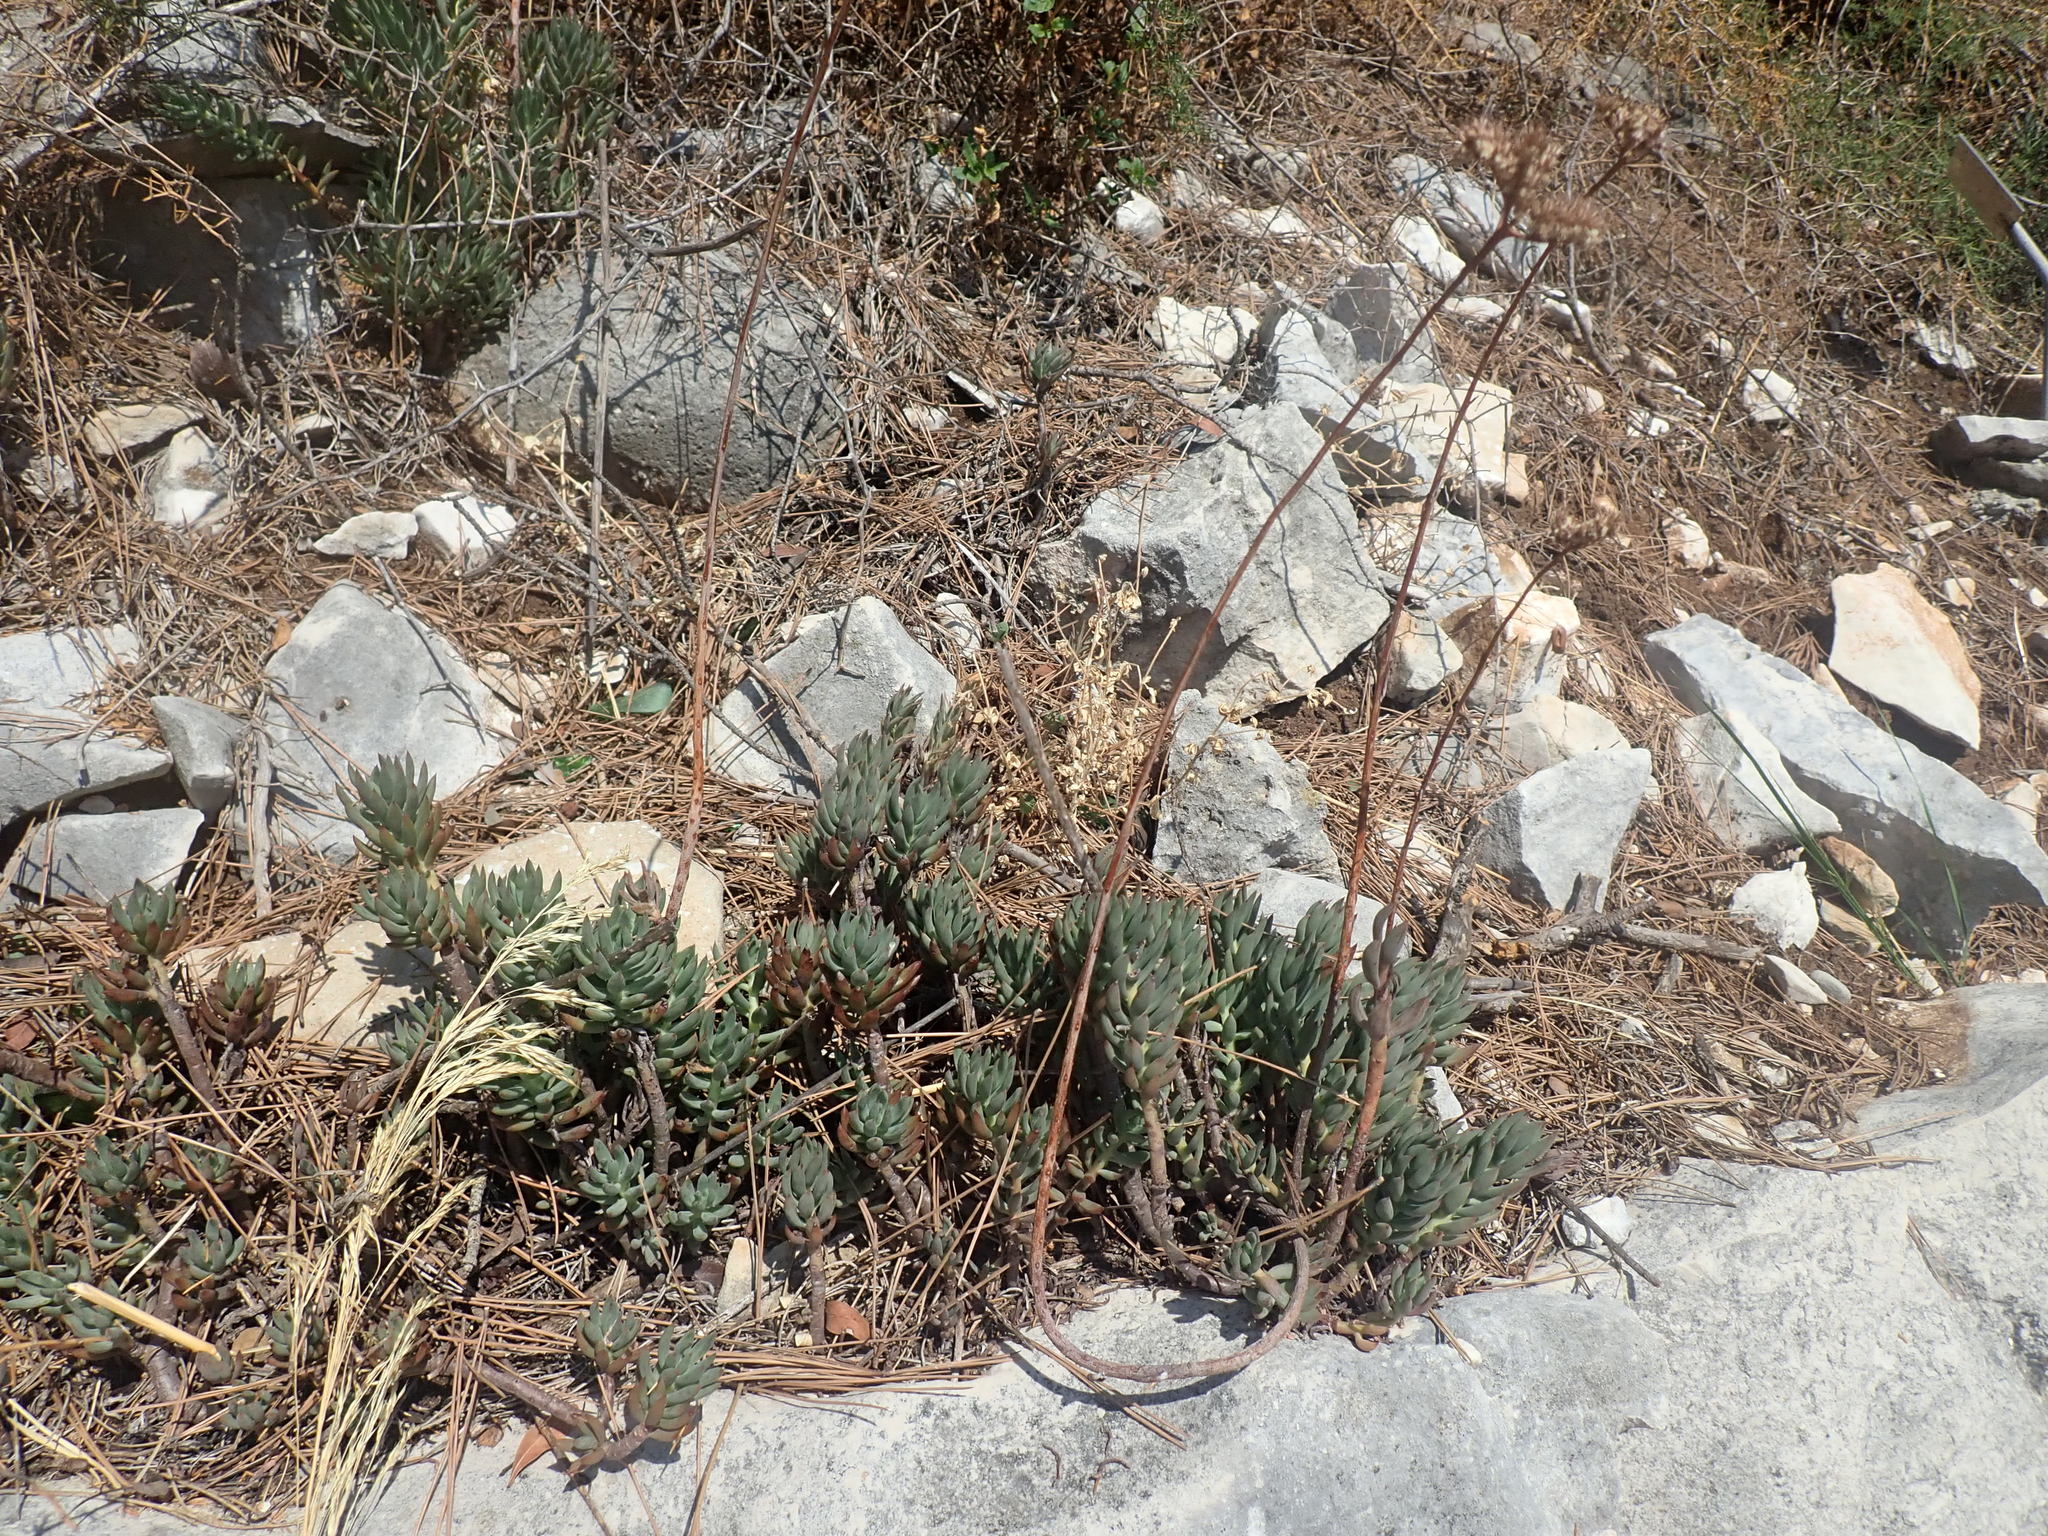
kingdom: Plantae
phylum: Tracheophyta
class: Magnoliopsida
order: Saxifragales
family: Crassulaceae
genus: Petrosedum
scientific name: Petrosedum sediforme
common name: Pale stonecrop
